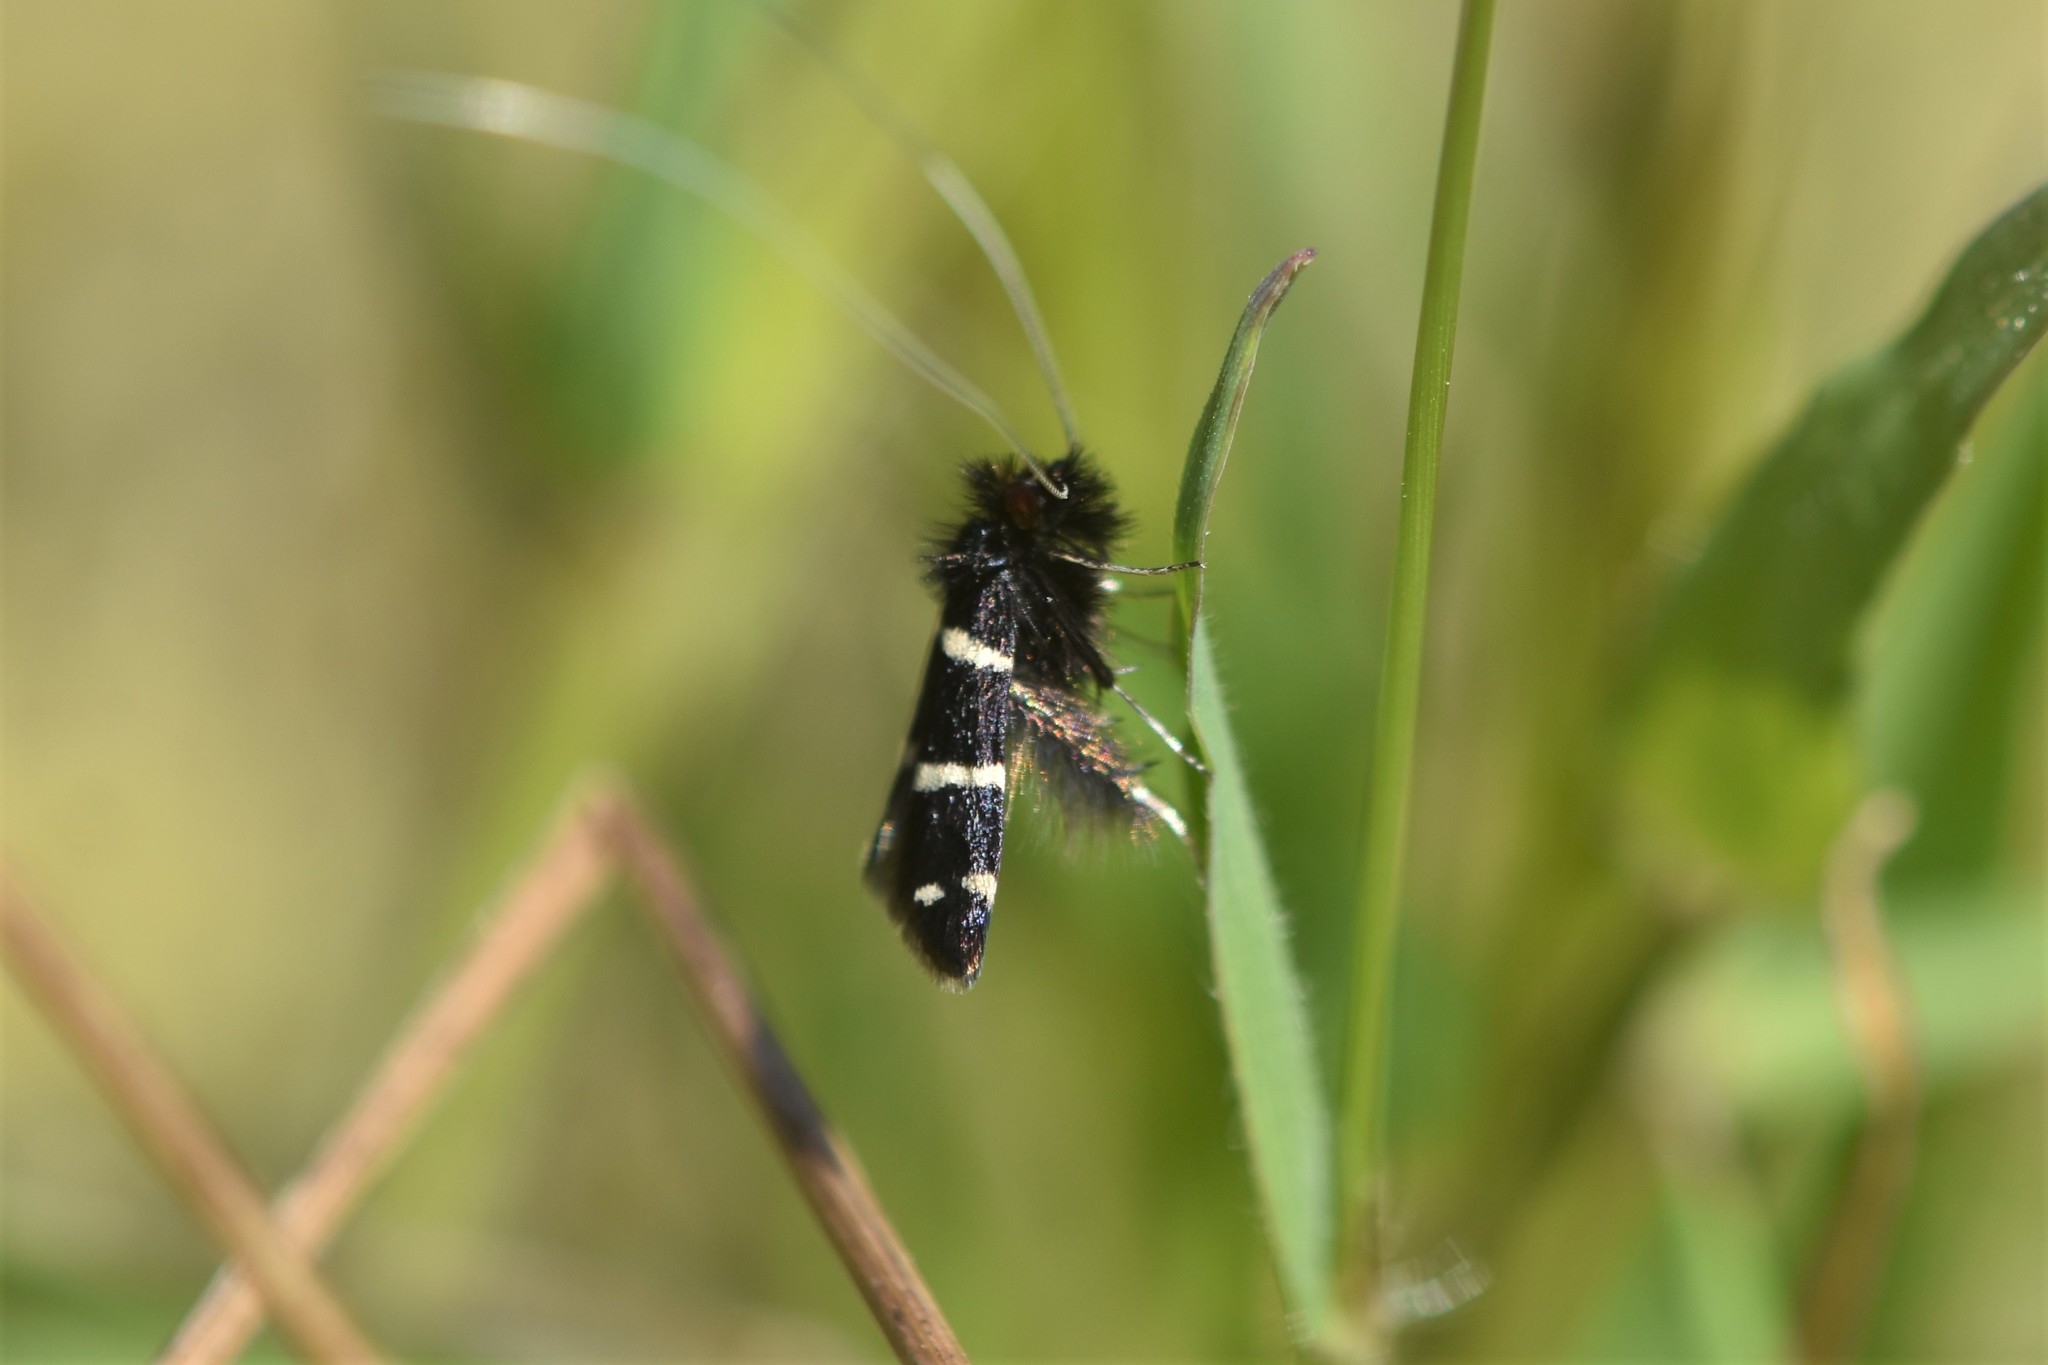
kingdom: Animalia
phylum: Arthropoda
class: Insecta
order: Lepidoptera
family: Adelidae
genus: Adela
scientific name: Adela trigrapha
